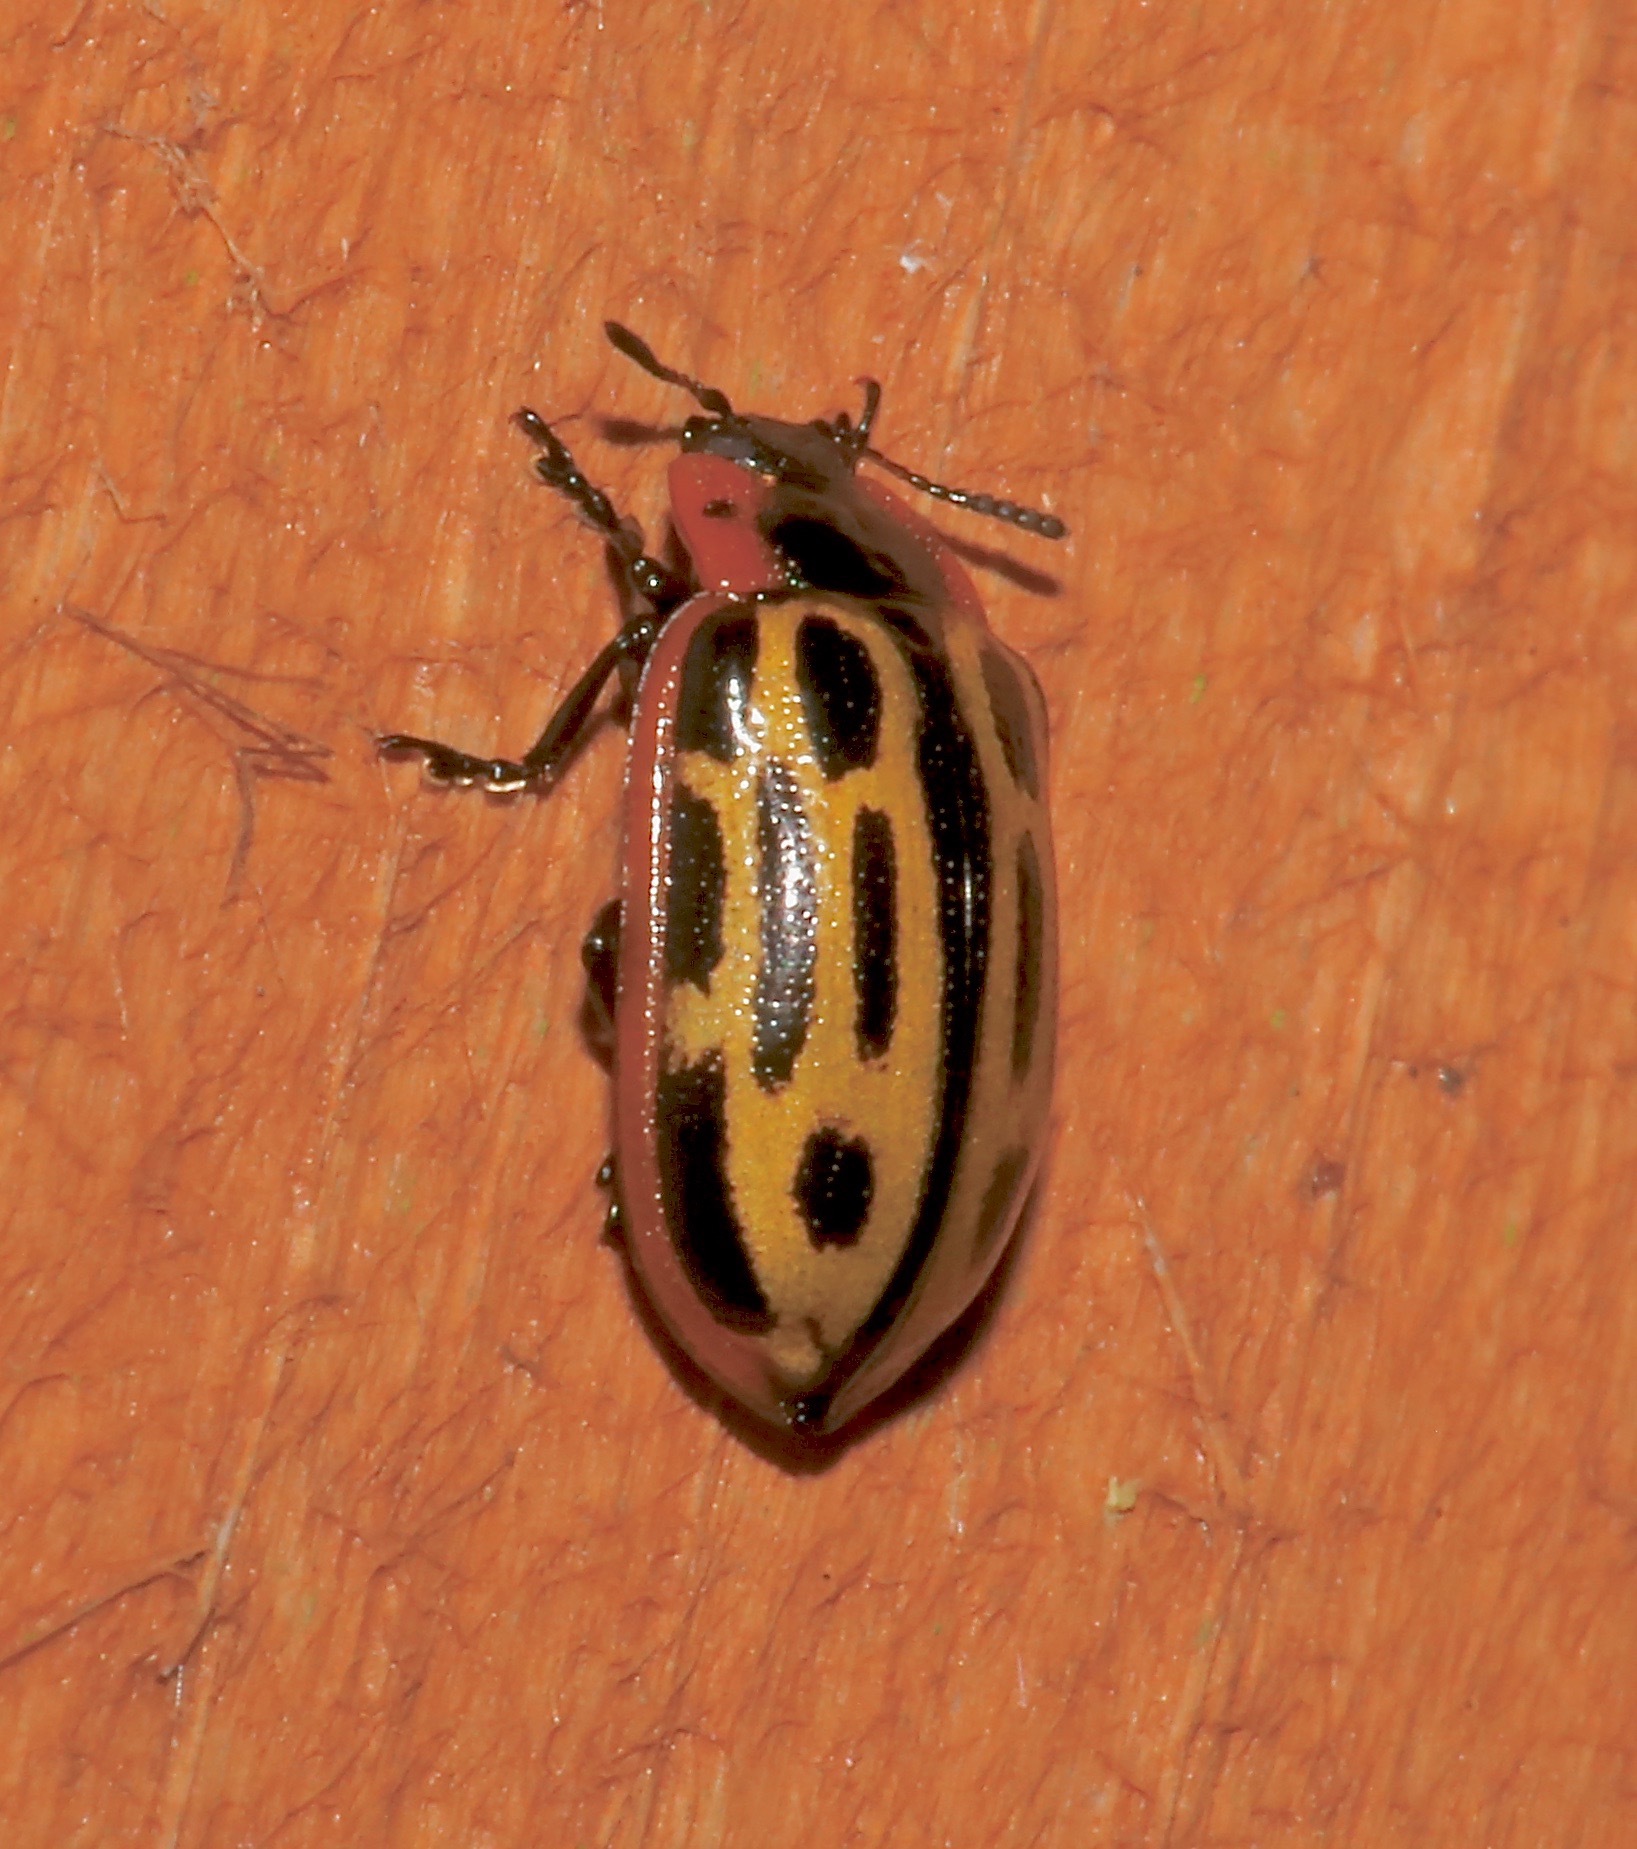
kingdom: Animalia
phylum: Arthropoda
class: Insecta
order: Coleoptera
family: Chrysomelidae
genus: Aethiopocassis
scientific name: Aethiopocassis scripta
